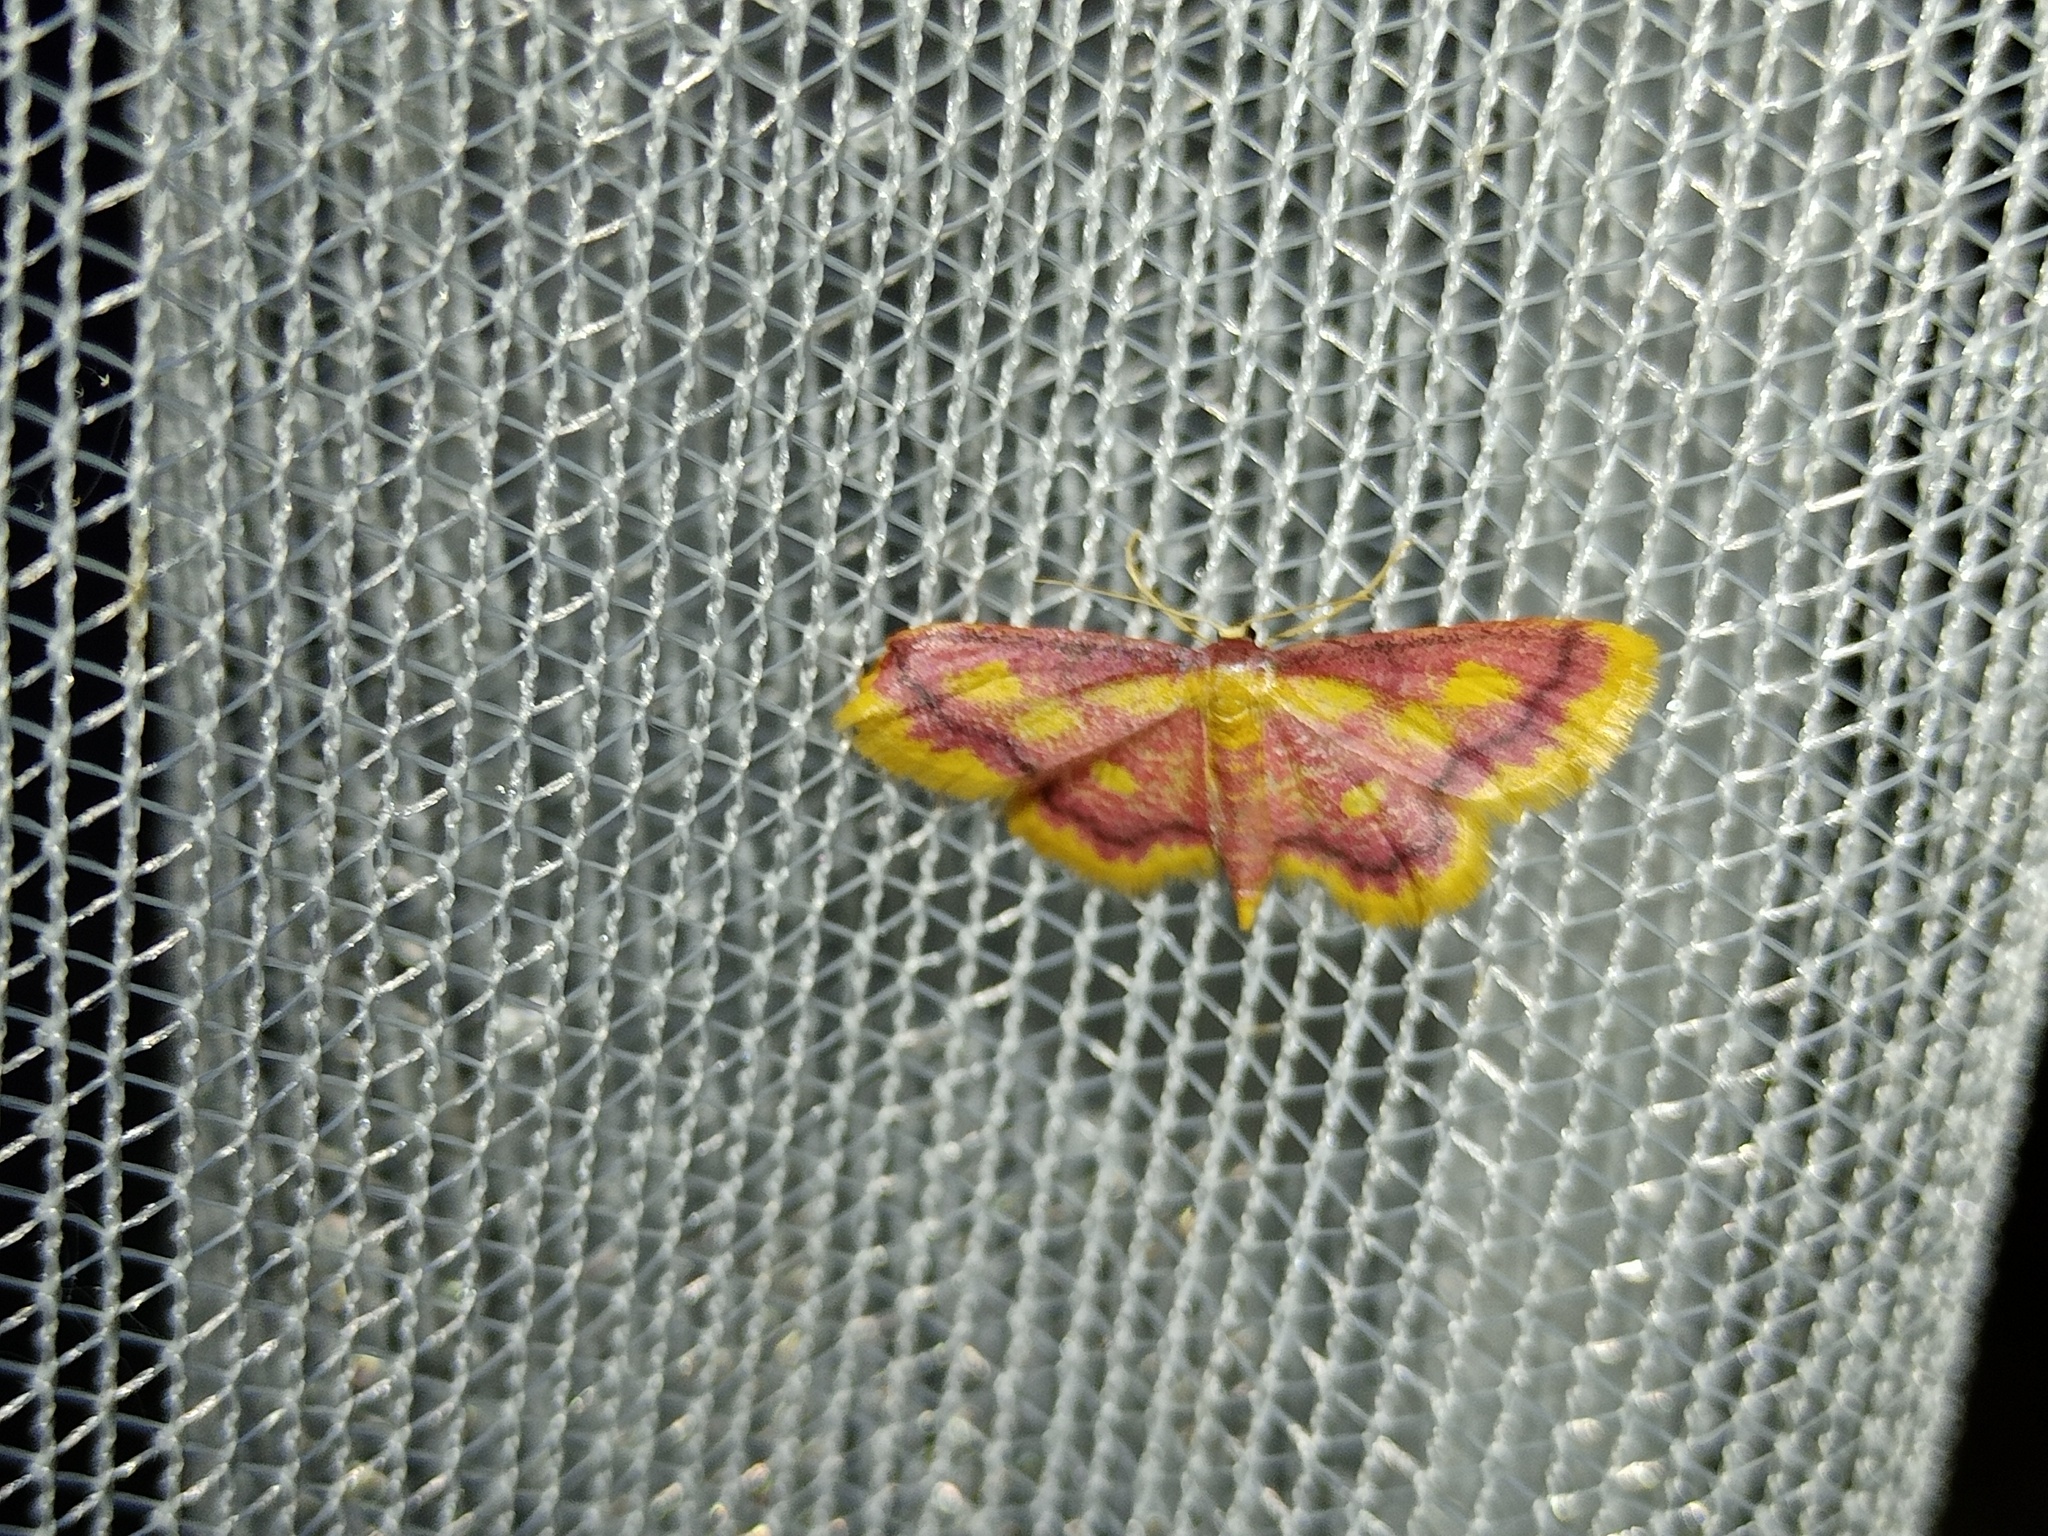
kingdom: Animalia
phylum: Arthropoda
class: Insecta
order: Lepidoptera
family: Geometridae
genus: Idaea
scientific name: Idaea muricata
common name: Purple-bordered gold
